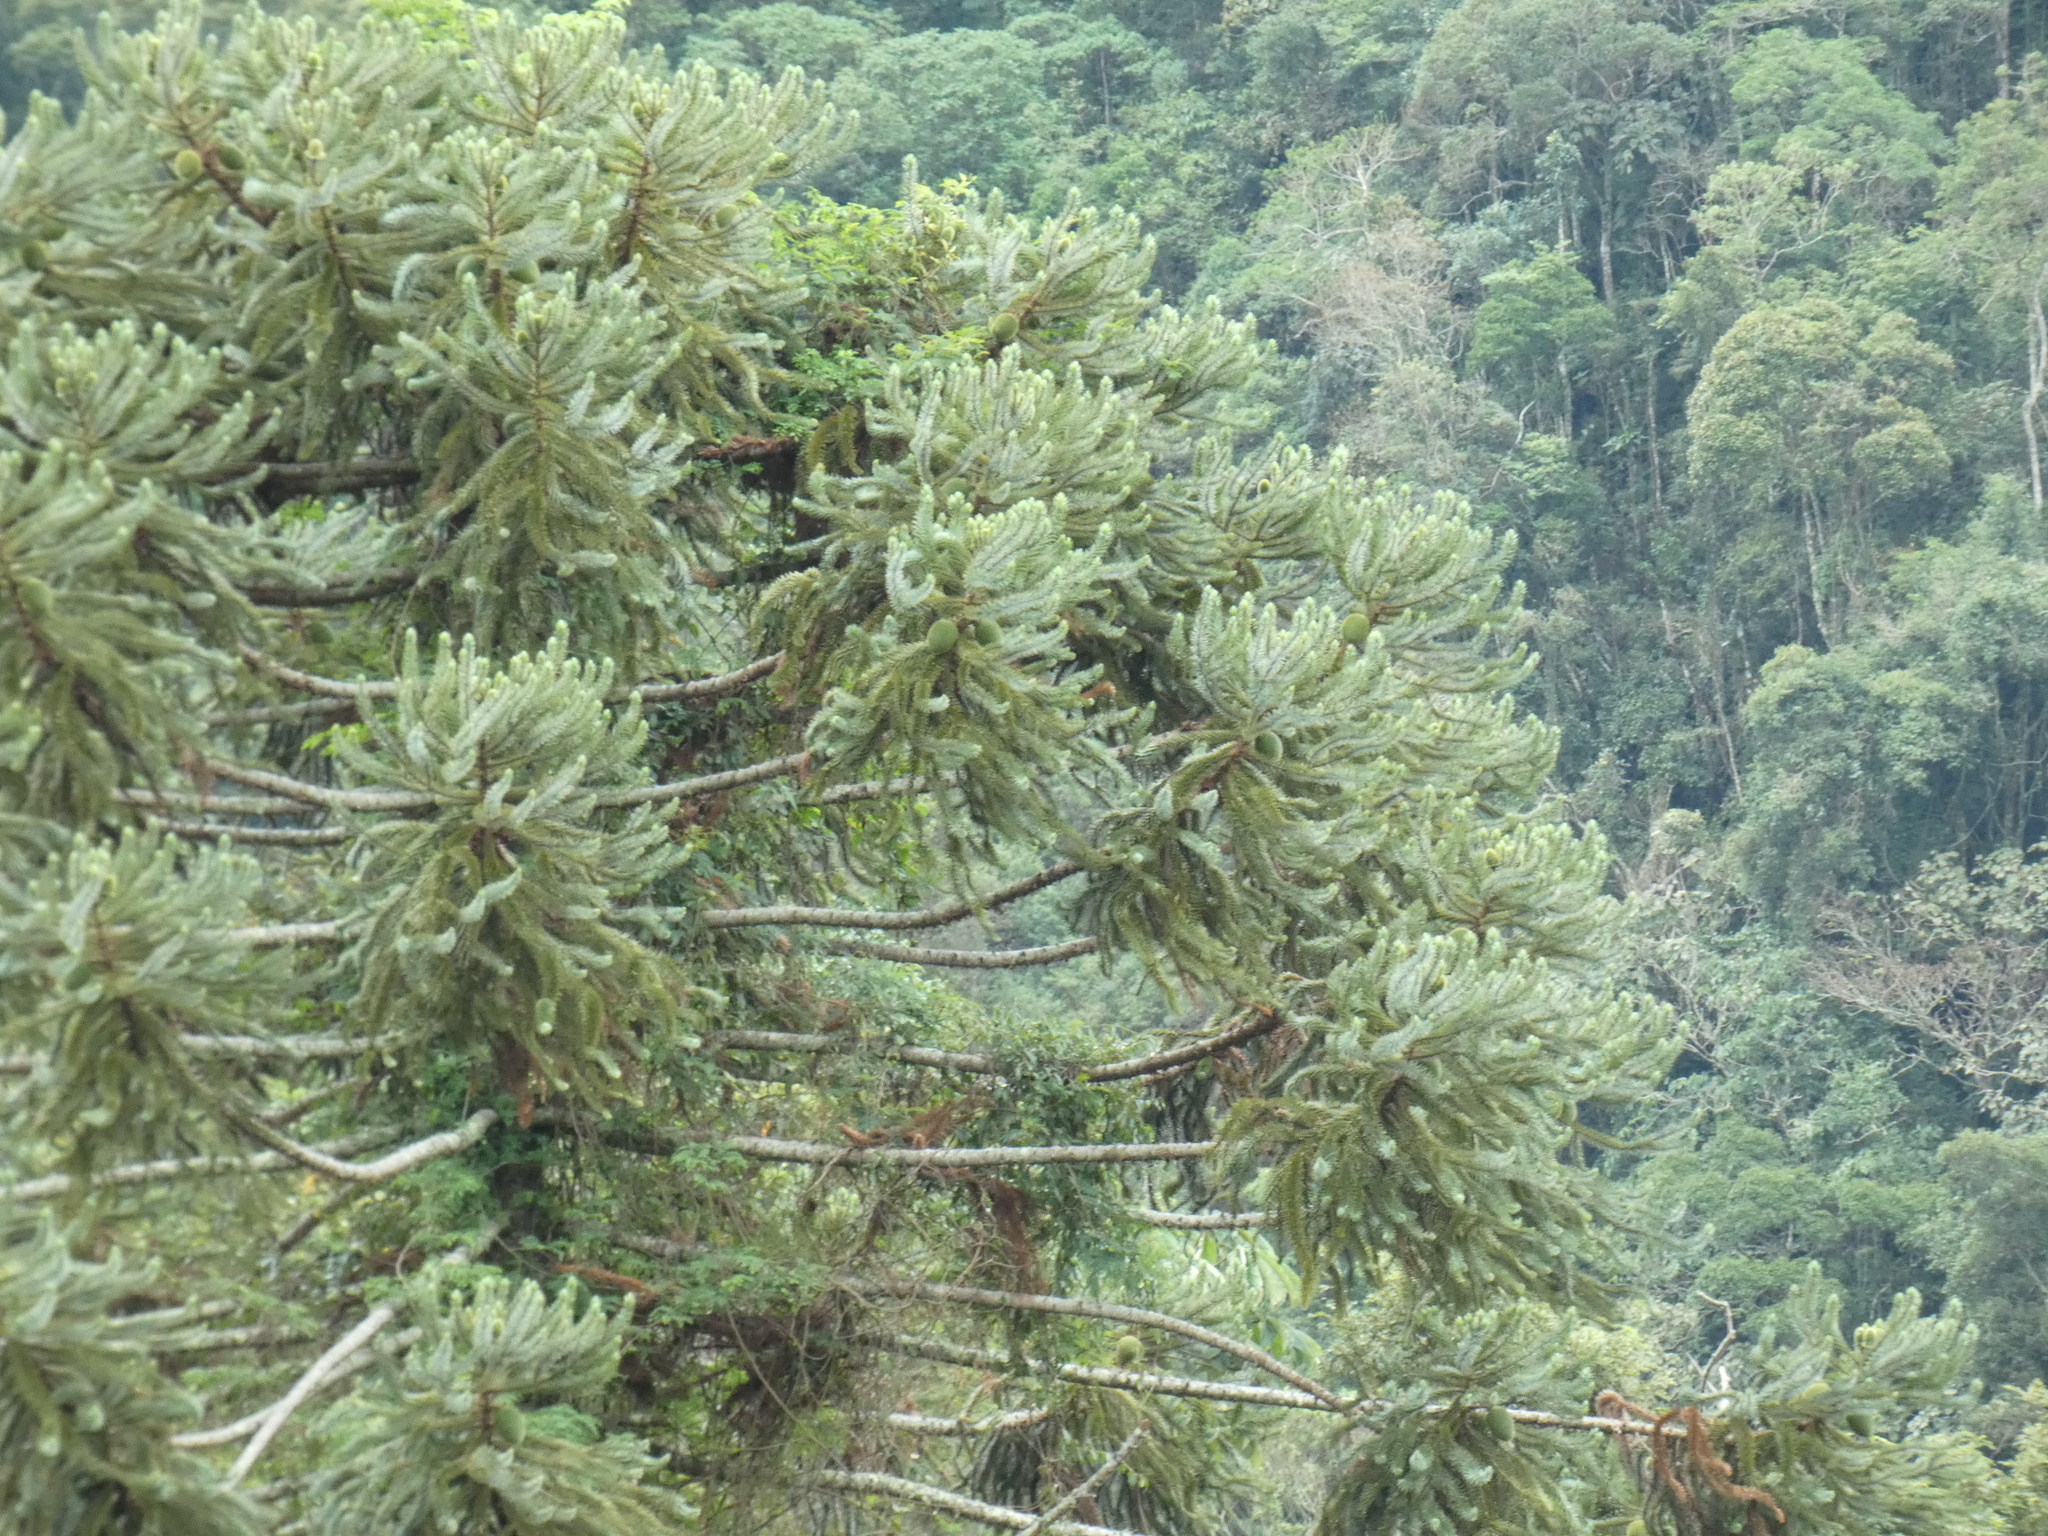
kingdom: Plantae
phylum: Tracheophyta
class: Pinopsida
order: Pinales
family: Araucariaceae
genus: Araucaria
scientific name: Araucaria angustifolia
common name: Candelabra tree
